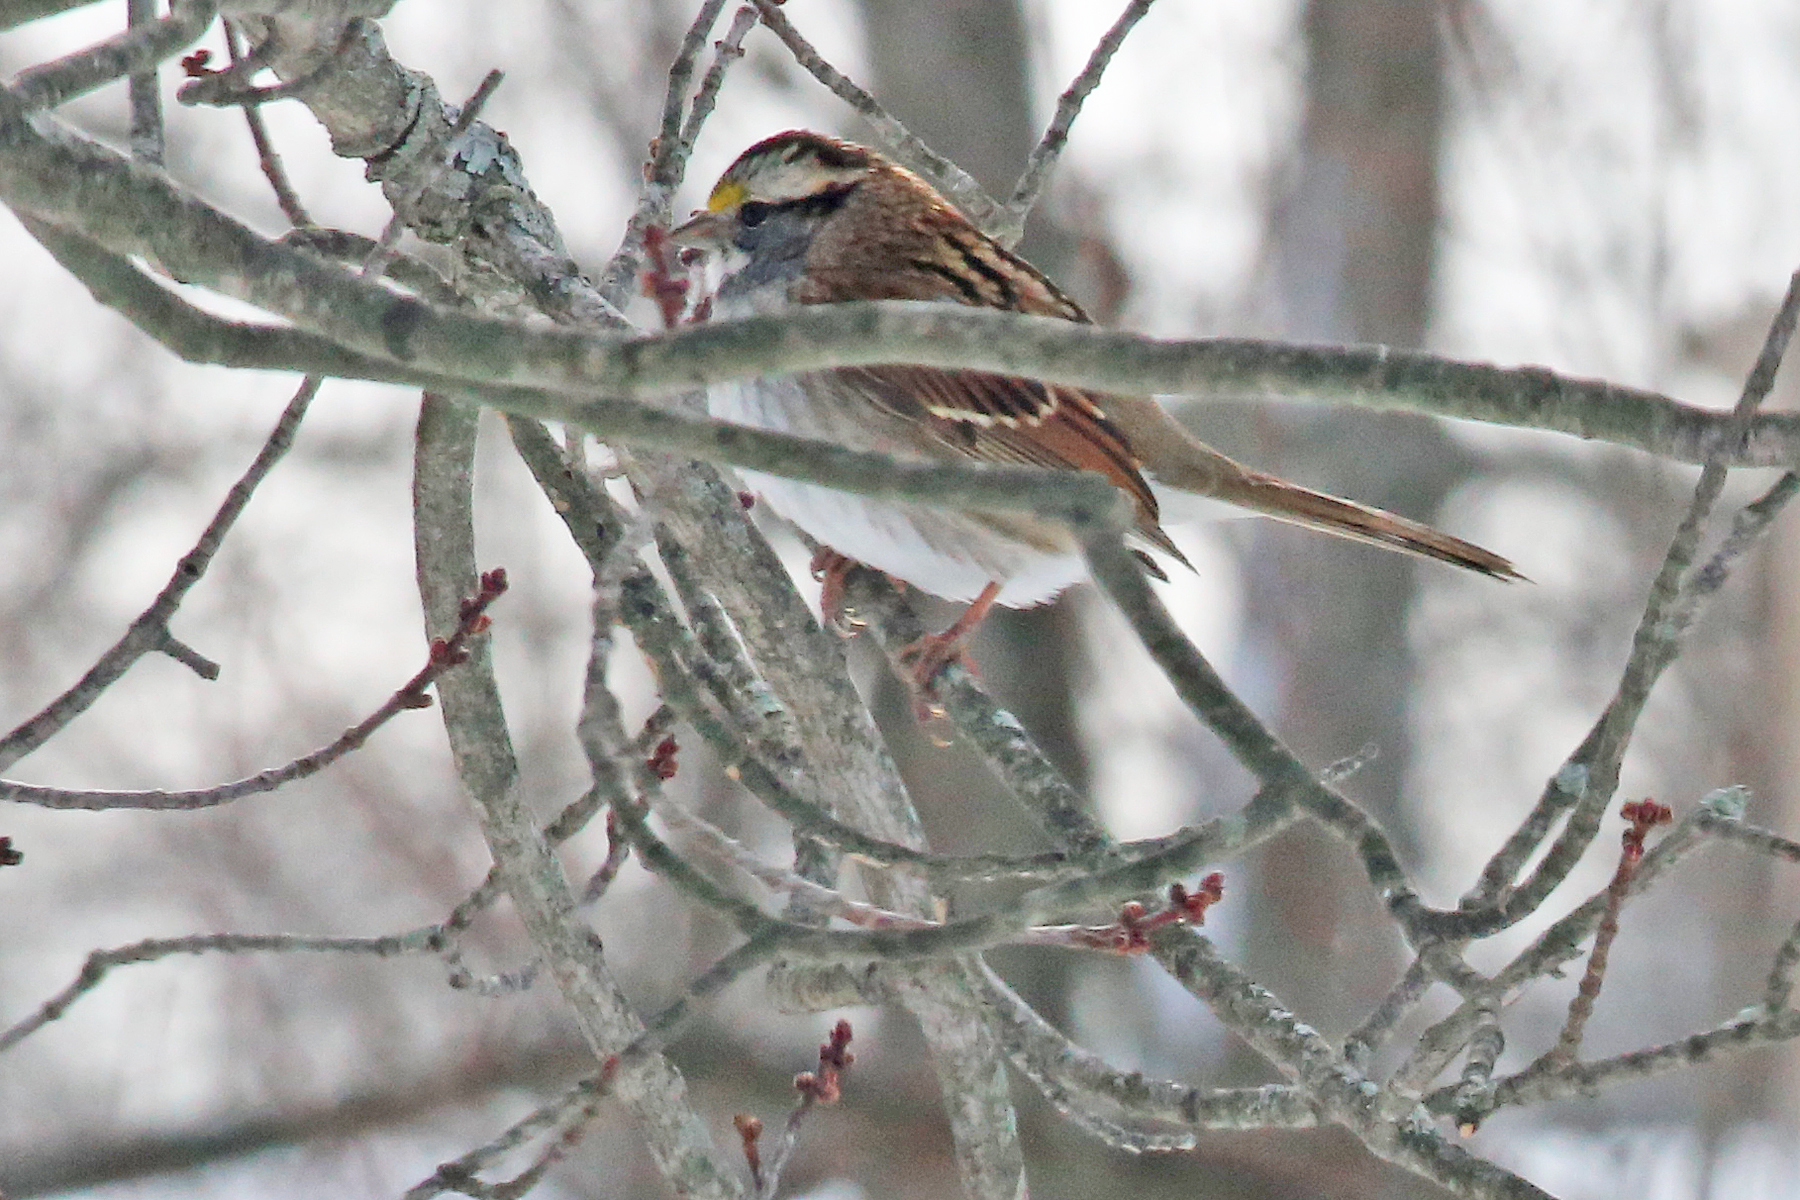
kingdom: Animalia
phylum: Chordata
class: Aves
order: Passeriformes
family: Passerellidae
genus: Zonotrichia
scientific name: Zonotrichia albicollis
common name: White-throated sparrow
